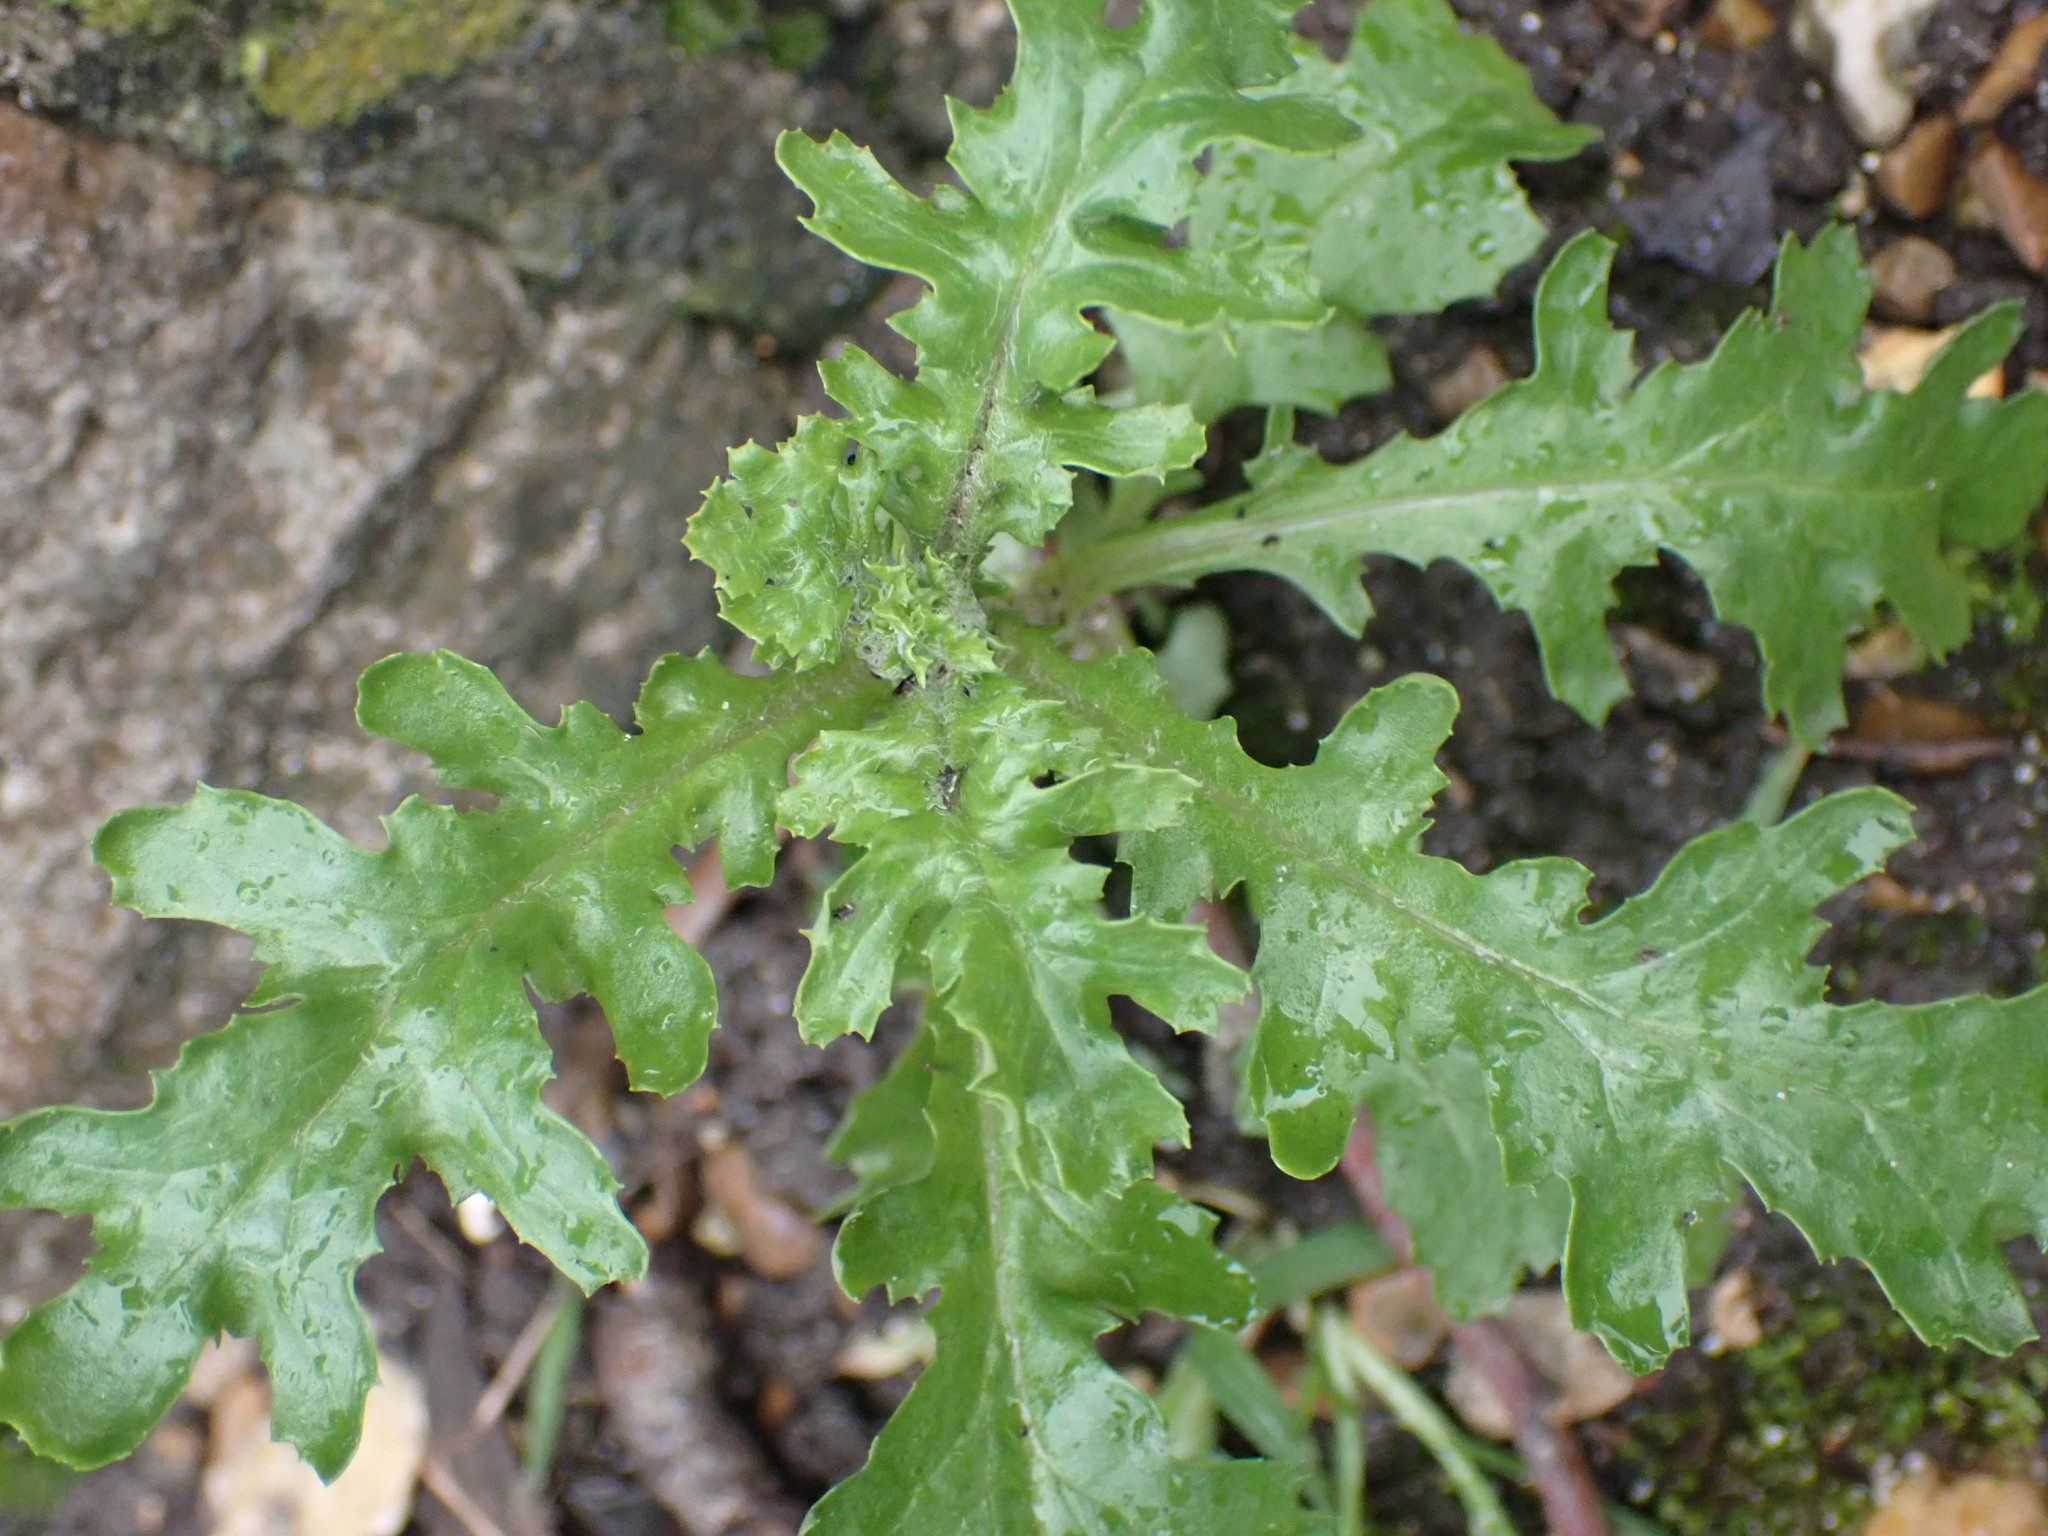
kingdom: Plantae
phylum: Tracheophyta
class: Magnoliopsida
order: Asterales
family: Asteraceae
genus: Senecio
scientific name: Senecio vulgaris
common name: Old-man-in-the-spring
